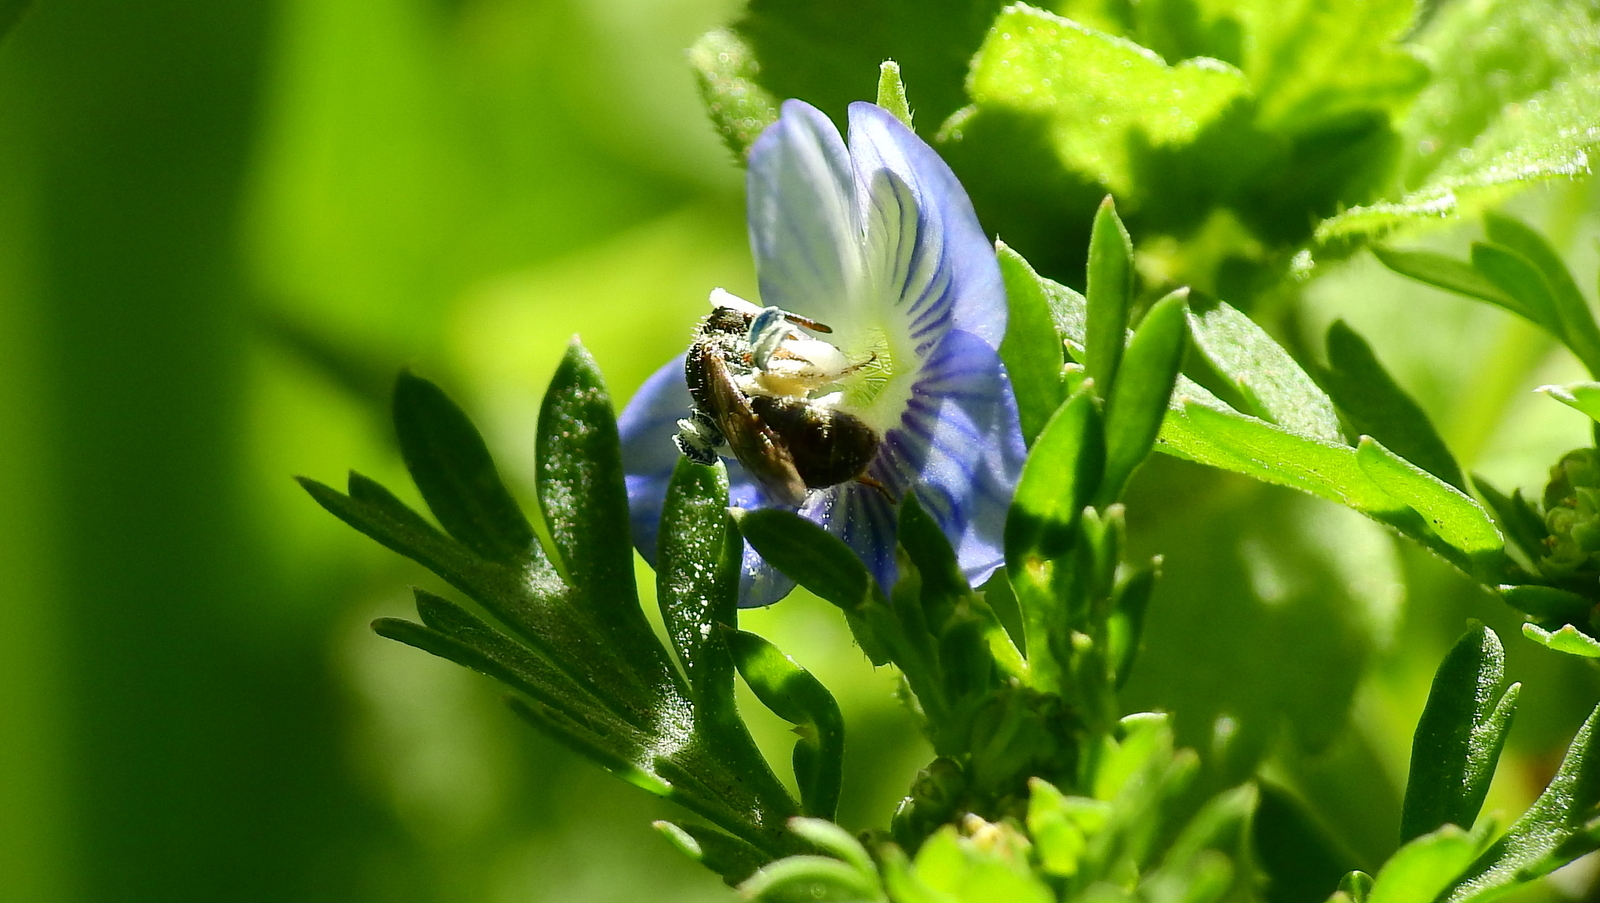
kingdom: Plantae
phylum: Tracheophyta
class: Magnoliopsida
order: Lamiales
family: Plantaginaceae
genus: Veronica
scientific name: Veronica persica
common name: Common field-speedwell
